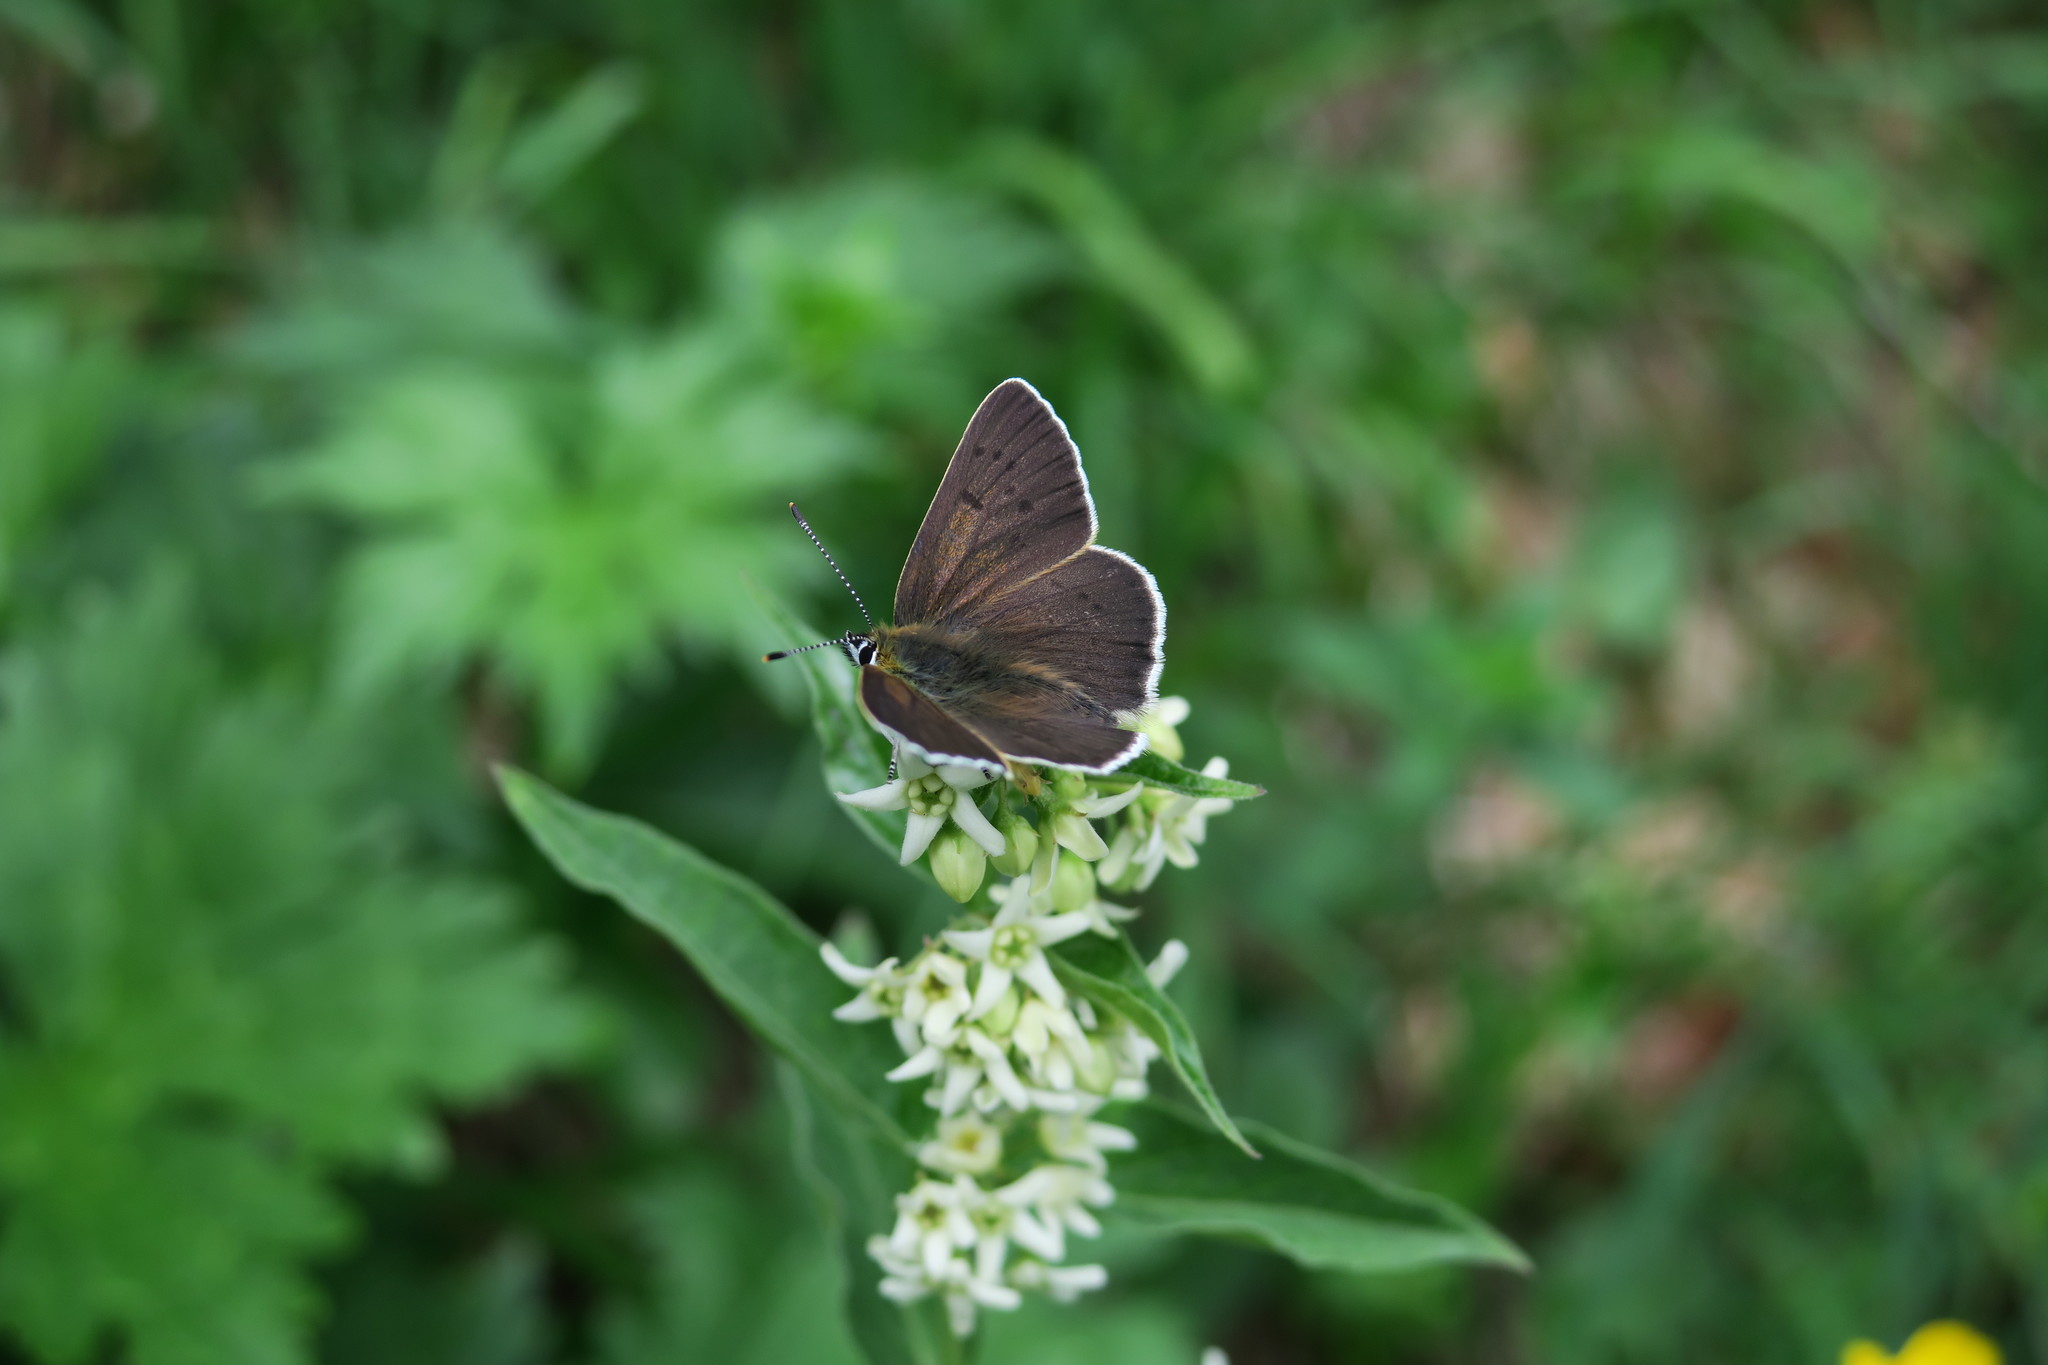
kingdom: Animalia
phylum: Arthropoda
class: Insecta
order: Lepidoptera
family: Lycaenidae
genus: Loweia
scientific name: Loweia tityrus
